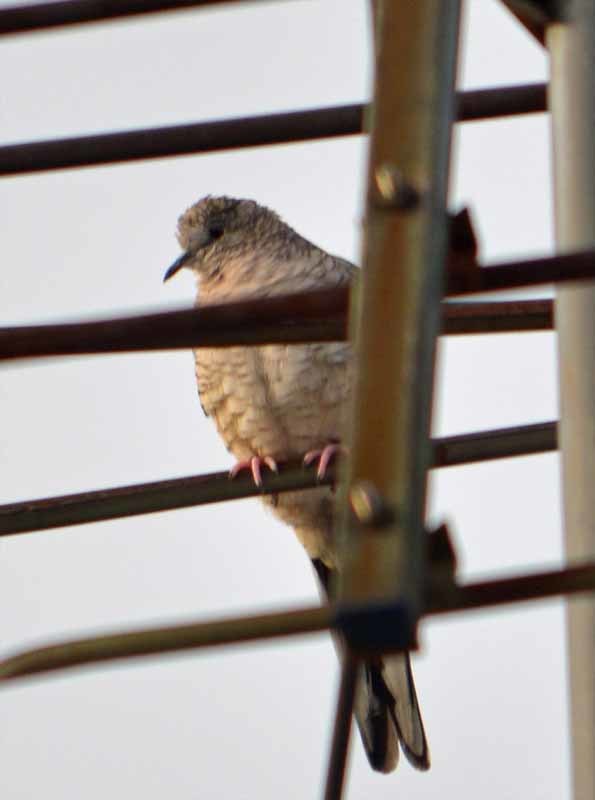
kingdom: Animalia
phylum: Chordata
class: Aves
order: Columbiformes
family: Columbidae
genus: Columbina
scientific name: Columbina inca
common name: Inca dove
